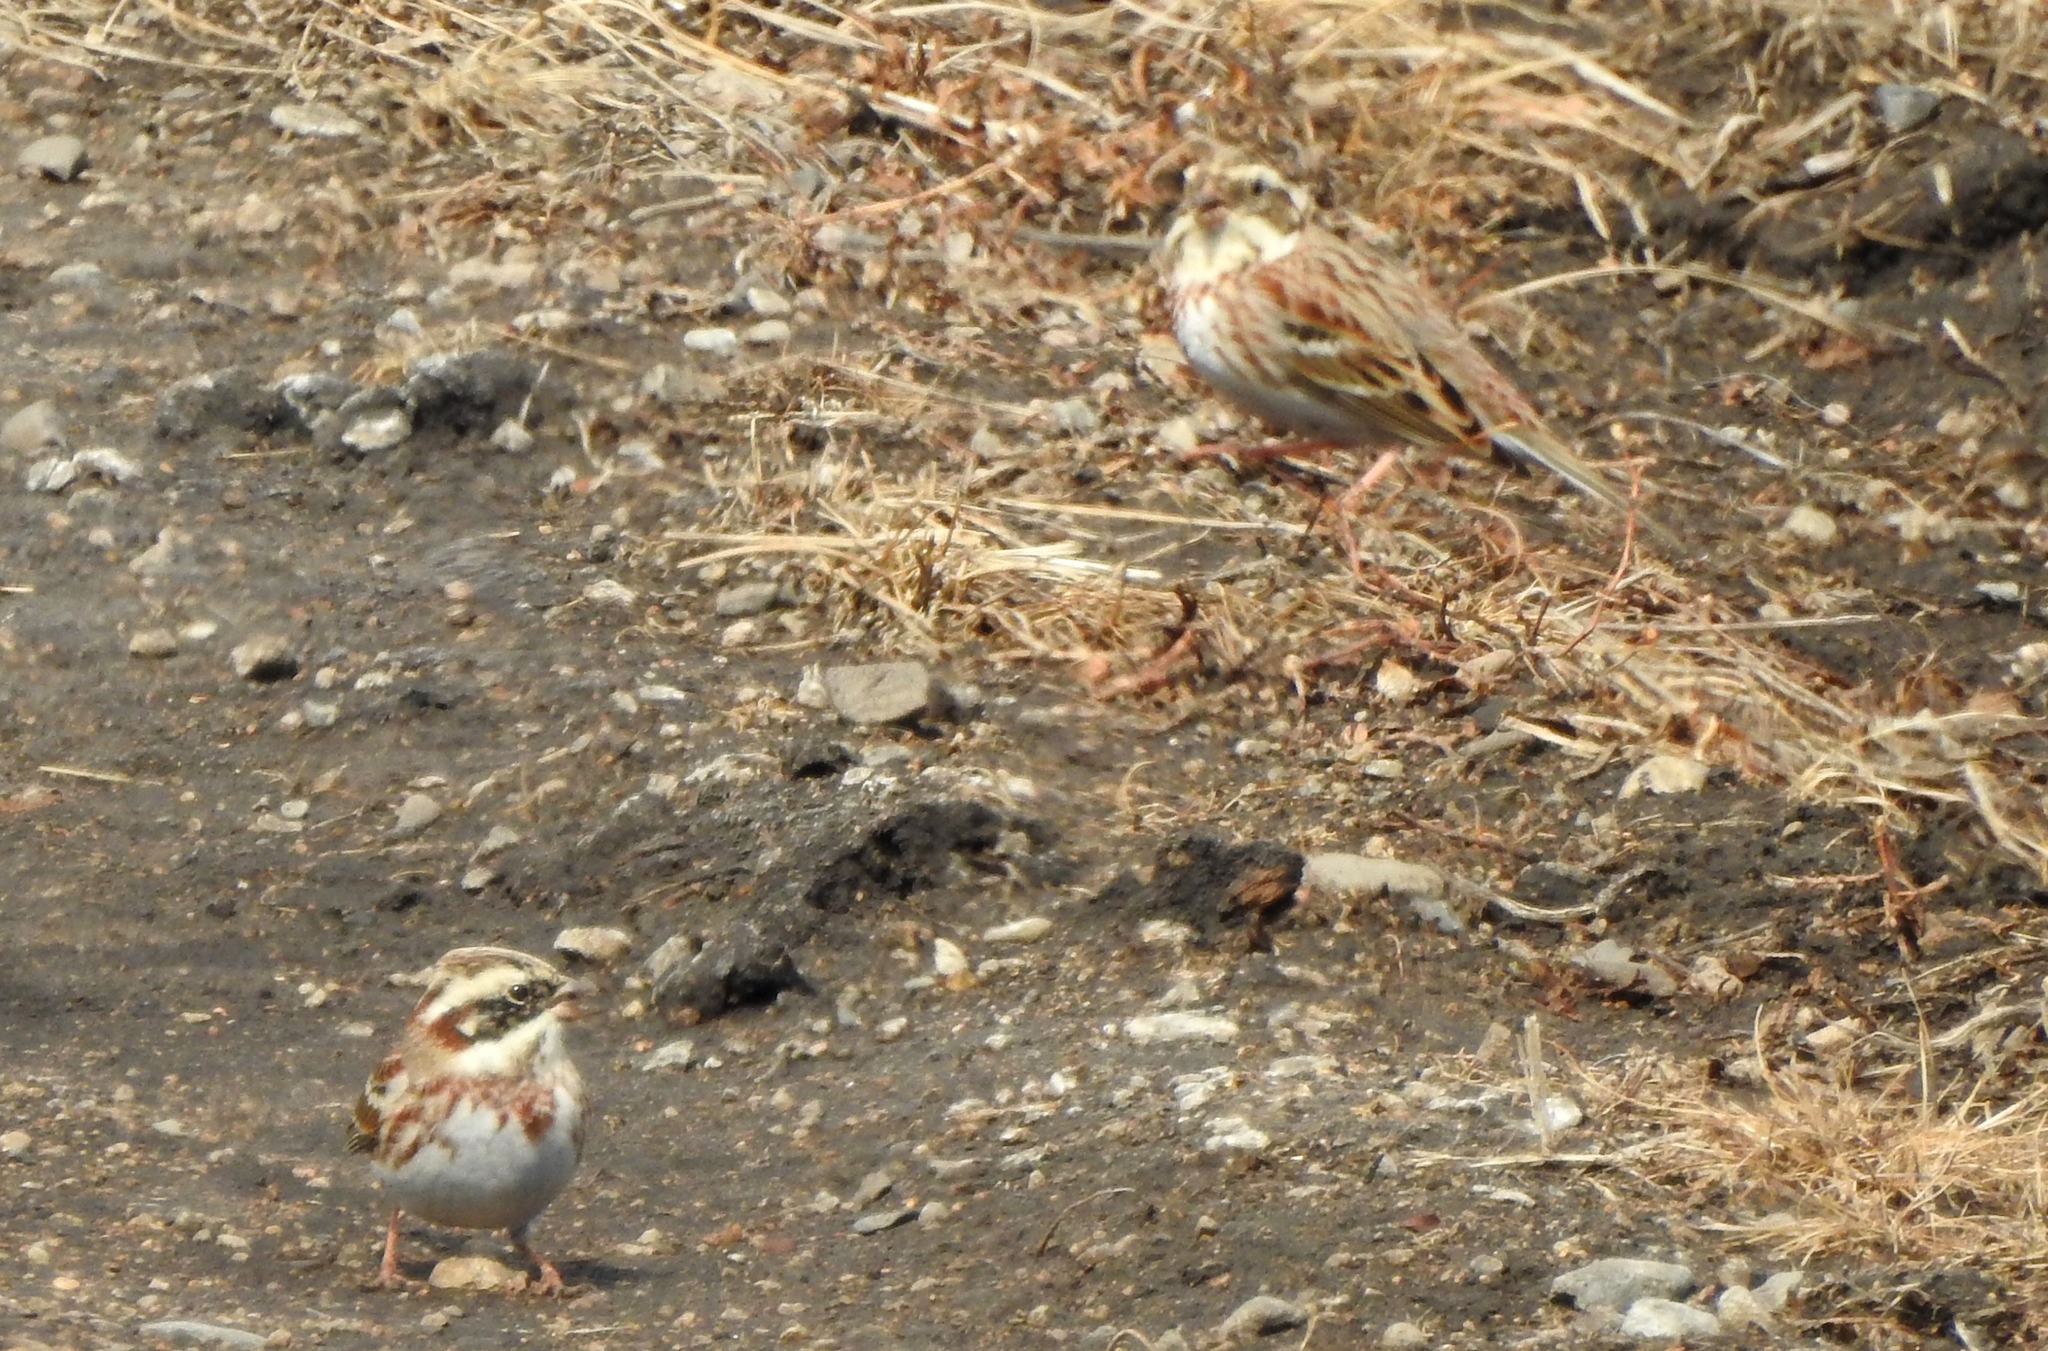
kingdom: Animalia
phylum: Chordata
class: Aves
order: Passeriformes
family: Emberizidae
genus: Emberiza
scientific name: Emberiza rustica
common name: Rustic bunting
